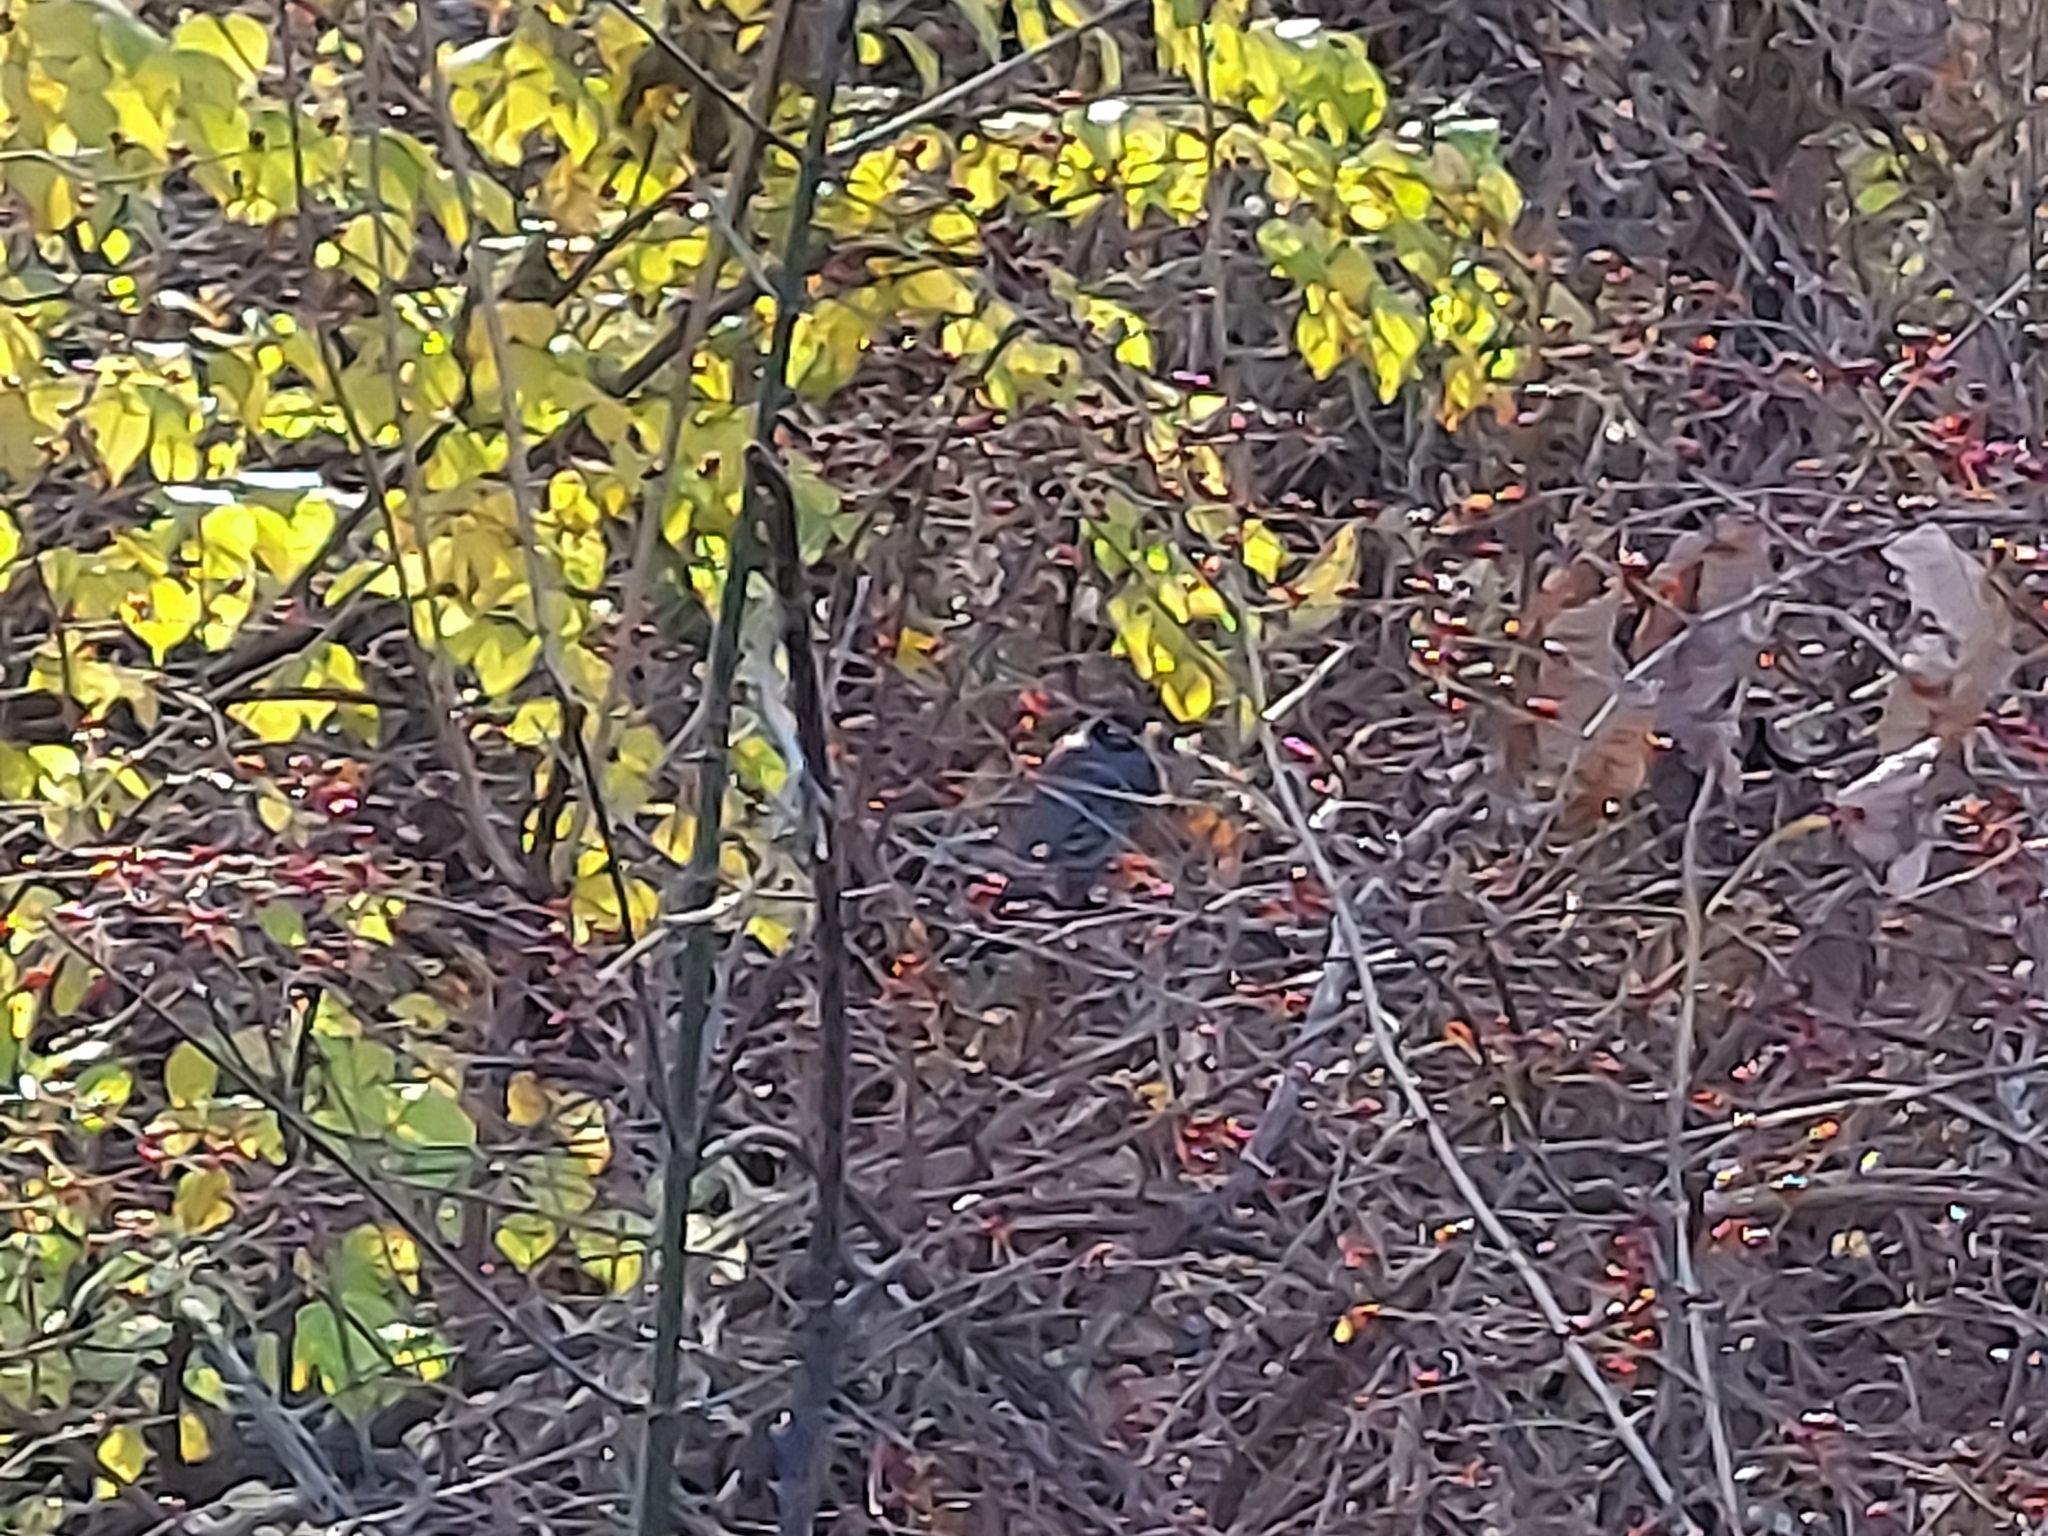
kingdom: Animalia
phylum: Chordata
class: Aves
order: Passeriformes
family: Turdidae
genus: Turdus
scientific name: Turdus migratorius
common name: American robin
